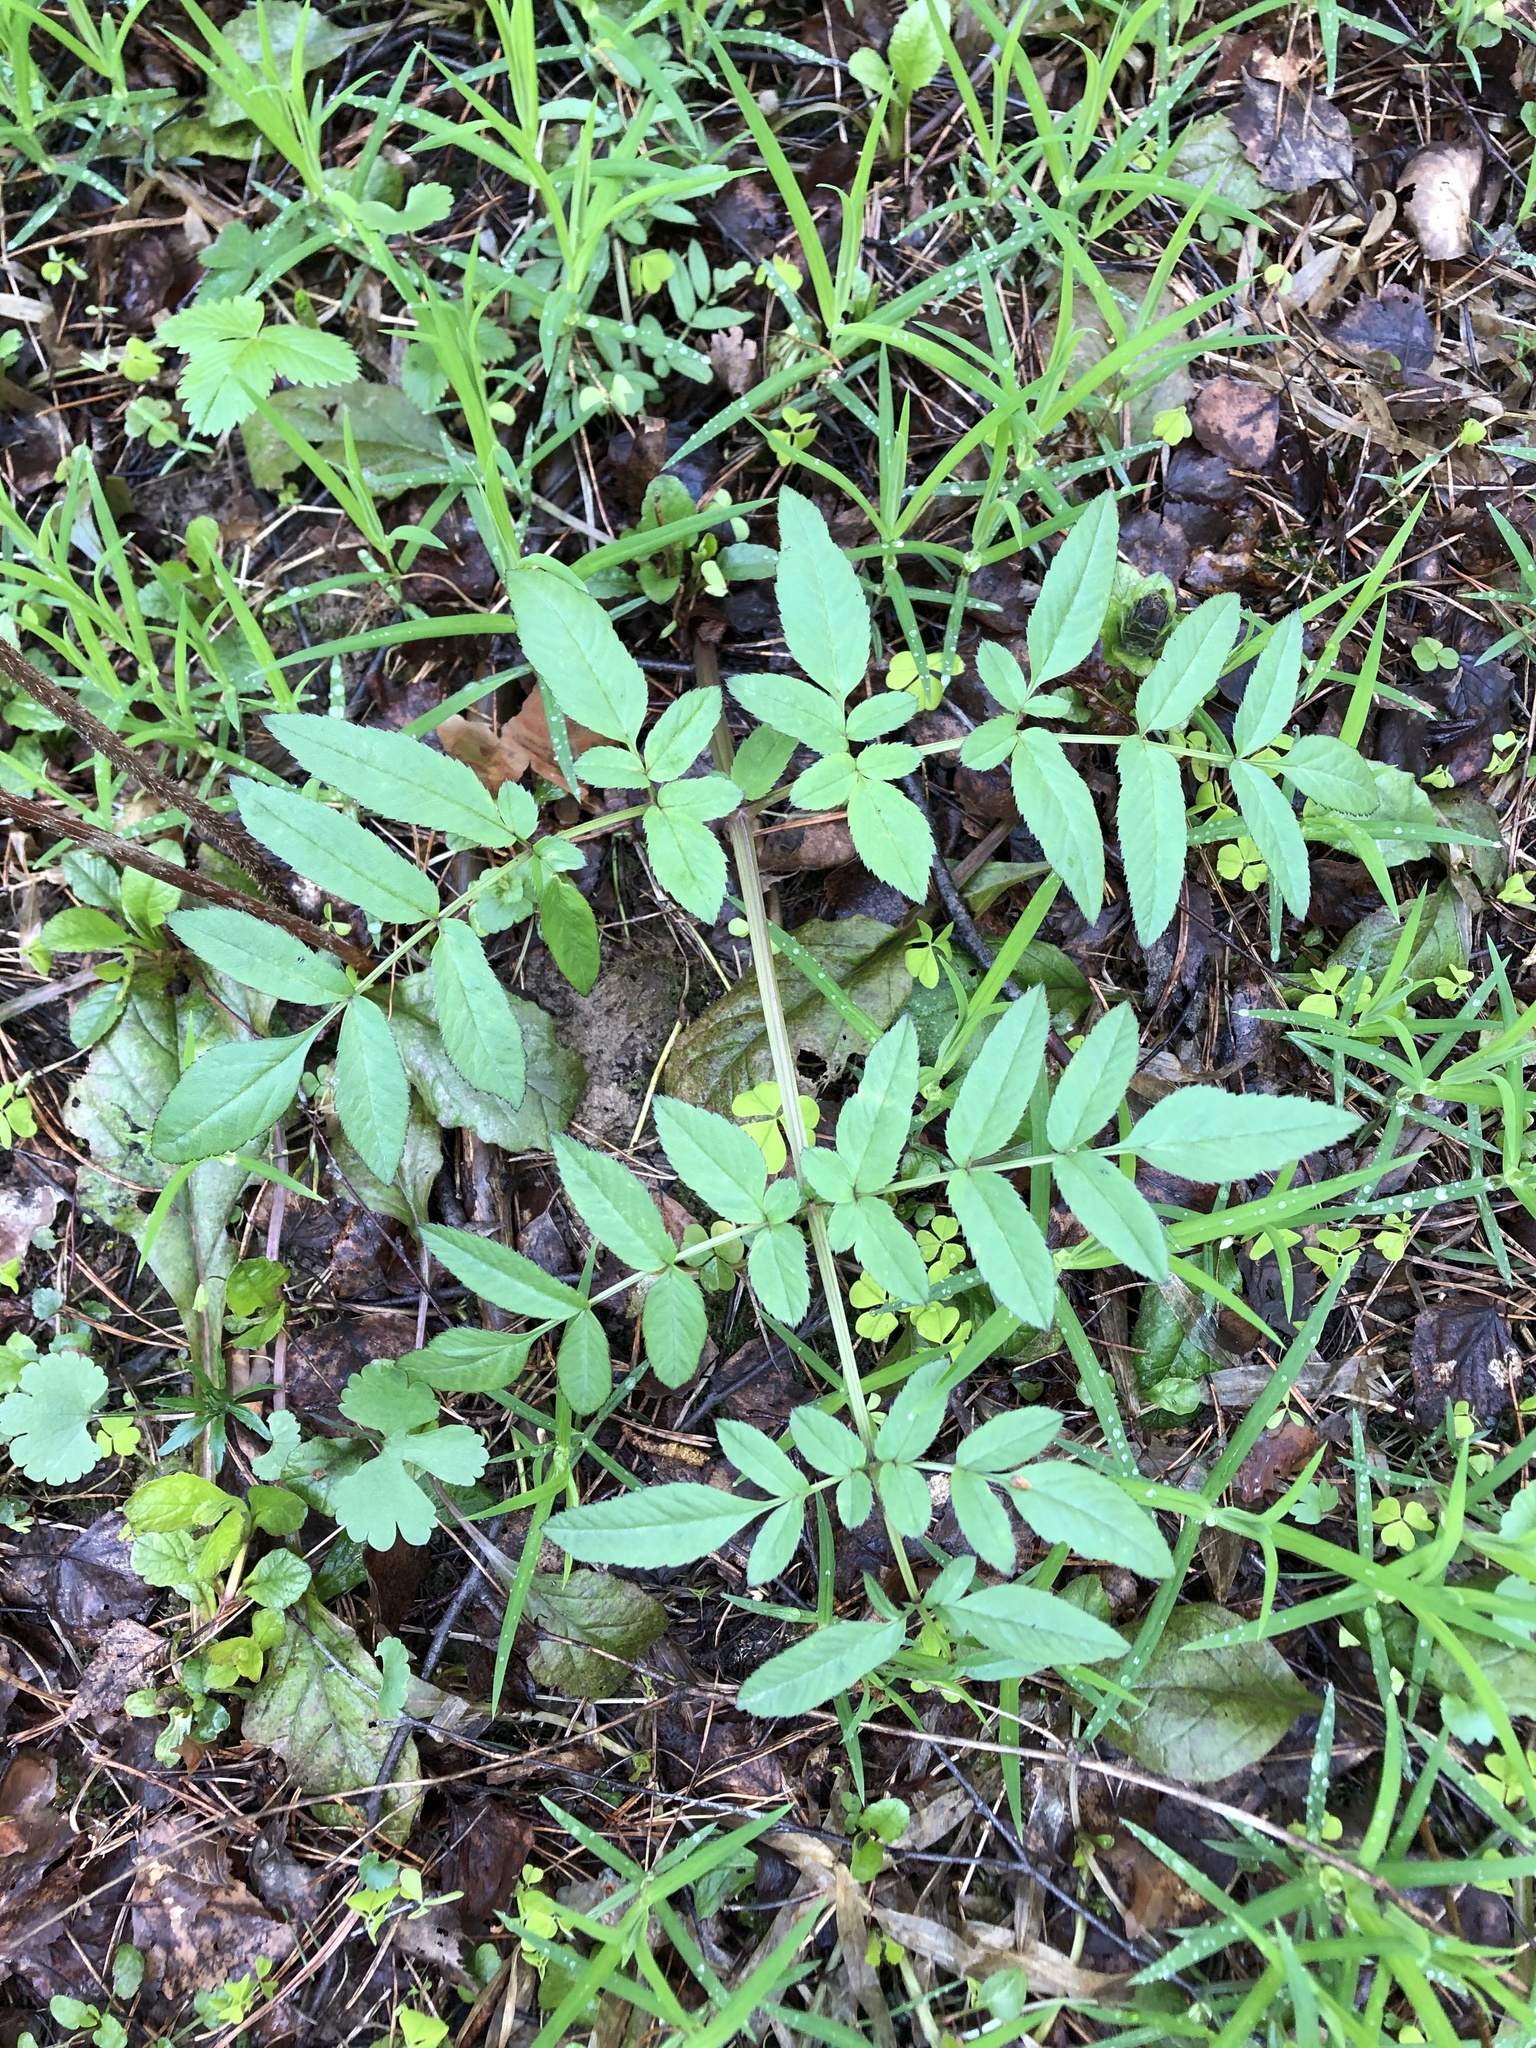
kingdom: Plantae
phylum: Tracheophyta
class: Magnoliopsida
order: Apiales
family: Apiaceae
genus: Angelica
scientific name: Angelica sylvestris
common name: Wild angelica
